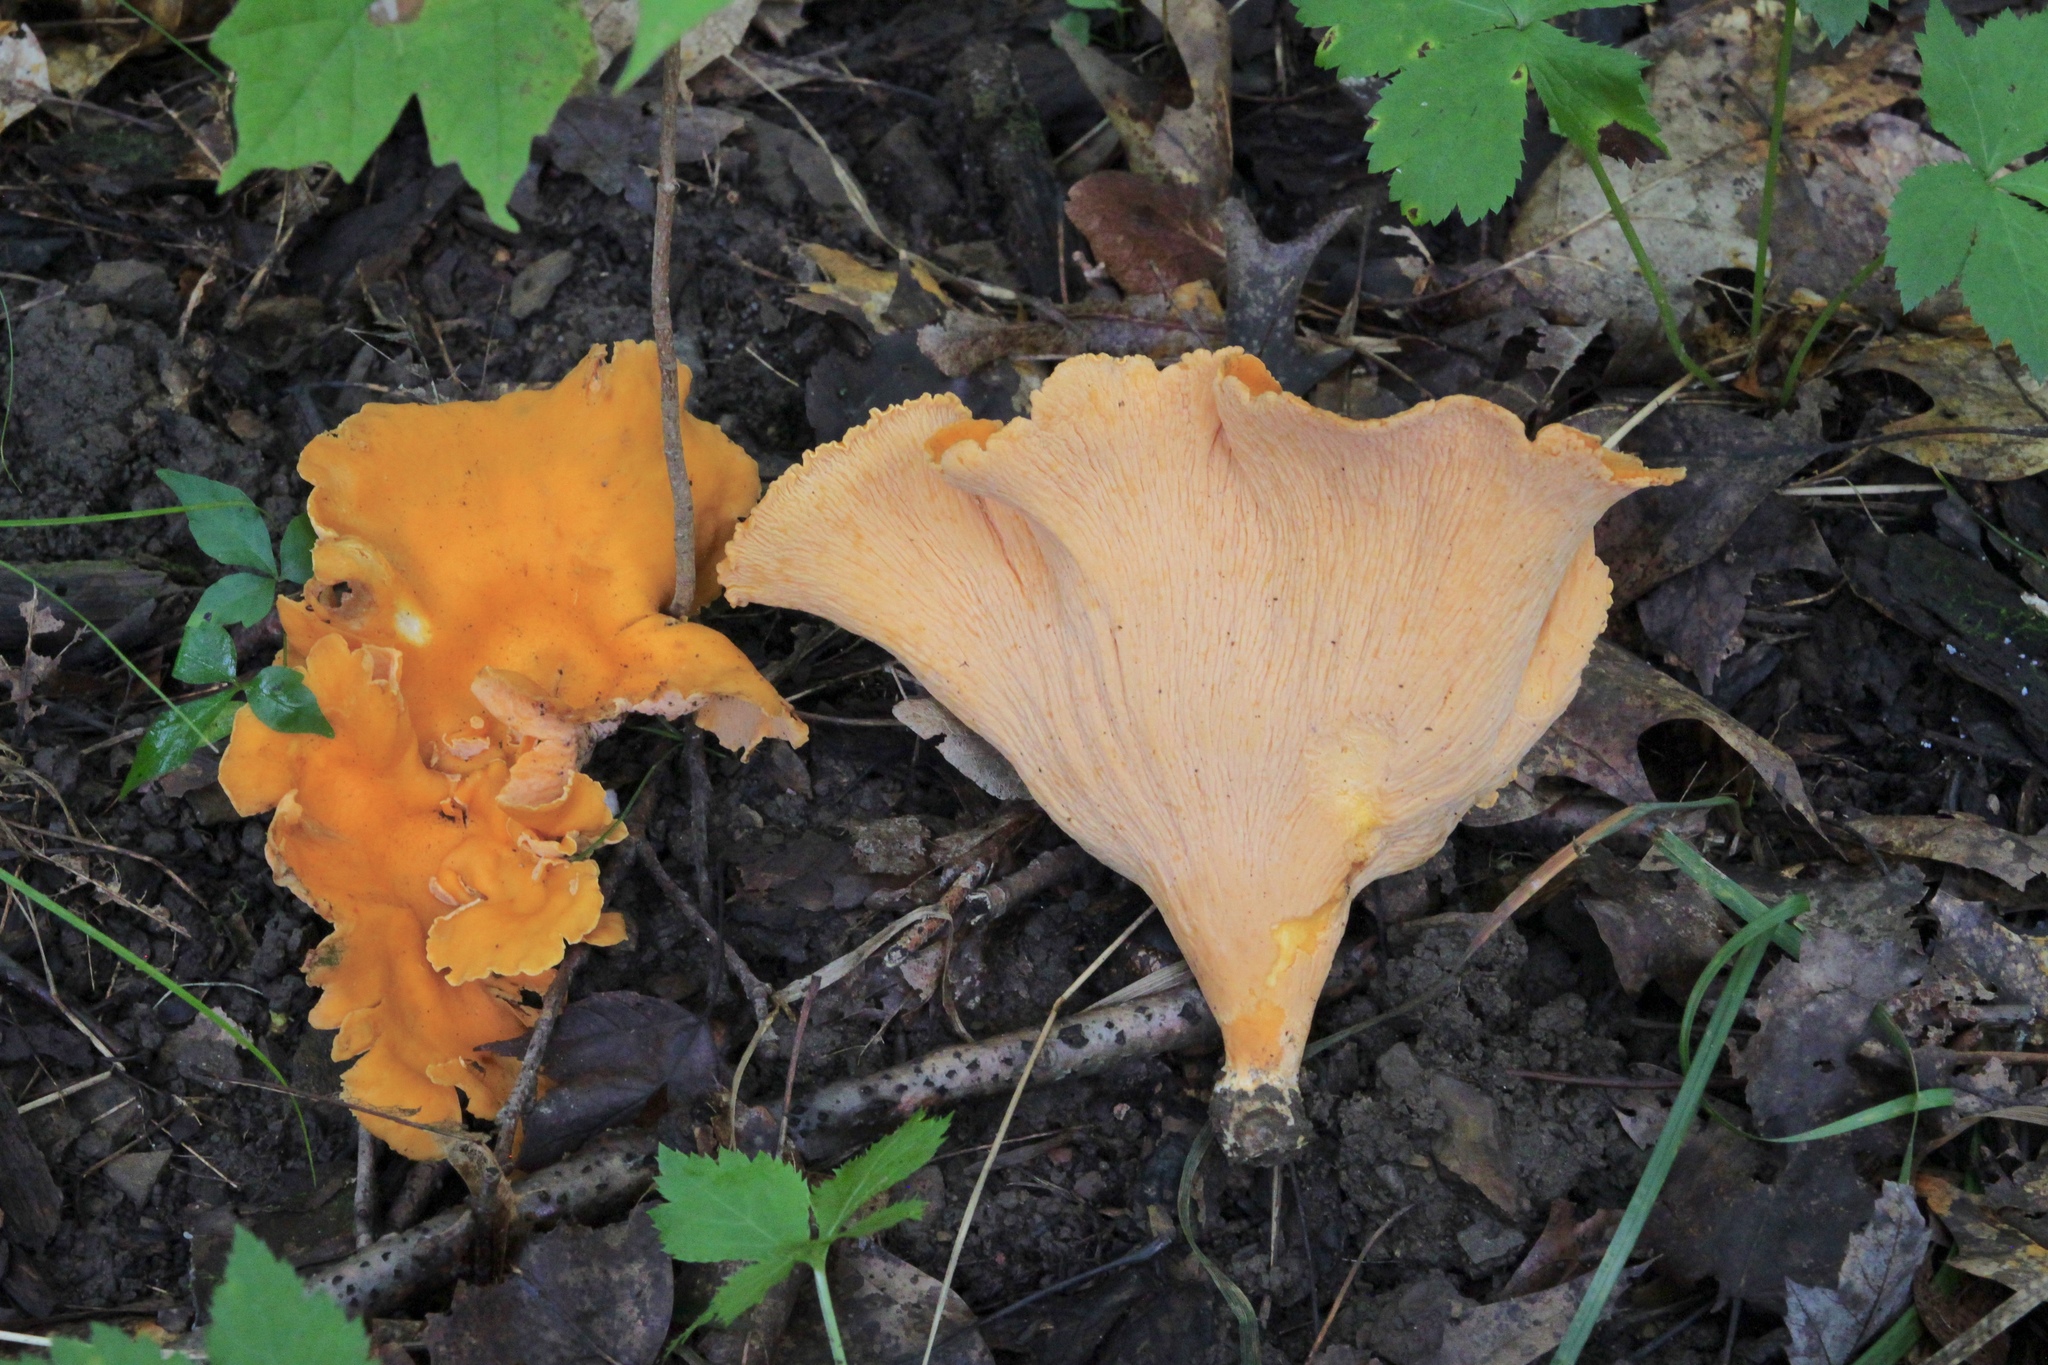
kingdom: Fungi
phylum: Basidiomycota
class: Agaricomycetes
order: Cantharellales
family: Hydnaceae
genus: Cantharellus
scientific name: Cantharellus lateritius
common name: Smooth chanterelle
